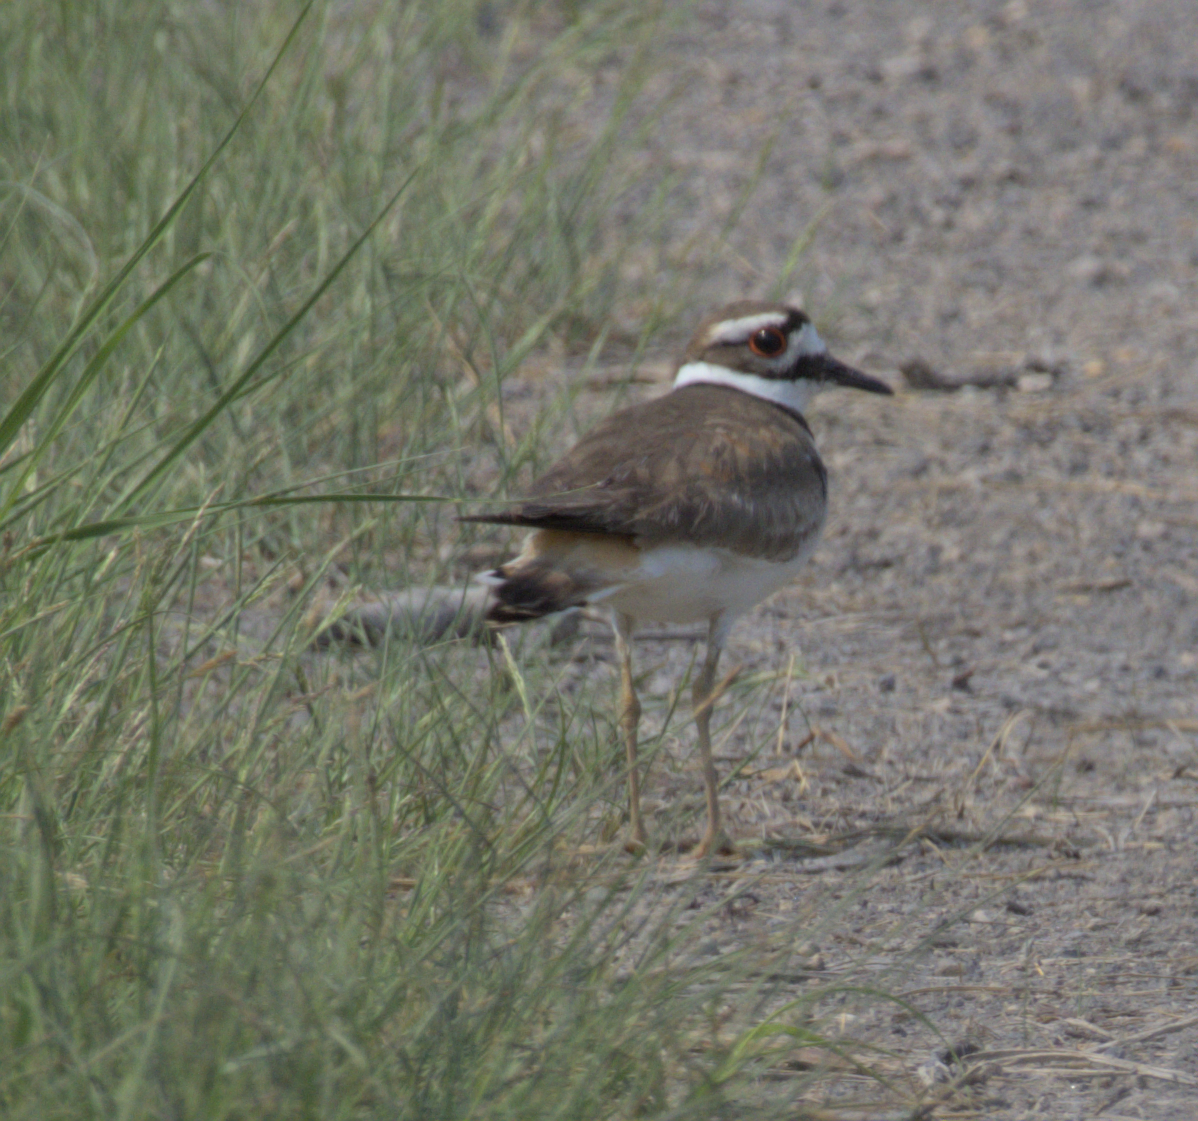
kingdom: Animalia
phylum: Chordata
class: Aves
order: Charadriiformes
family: Charadriidae
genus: Charadrius
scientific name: Charadrius vociferus
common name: Killdeer
